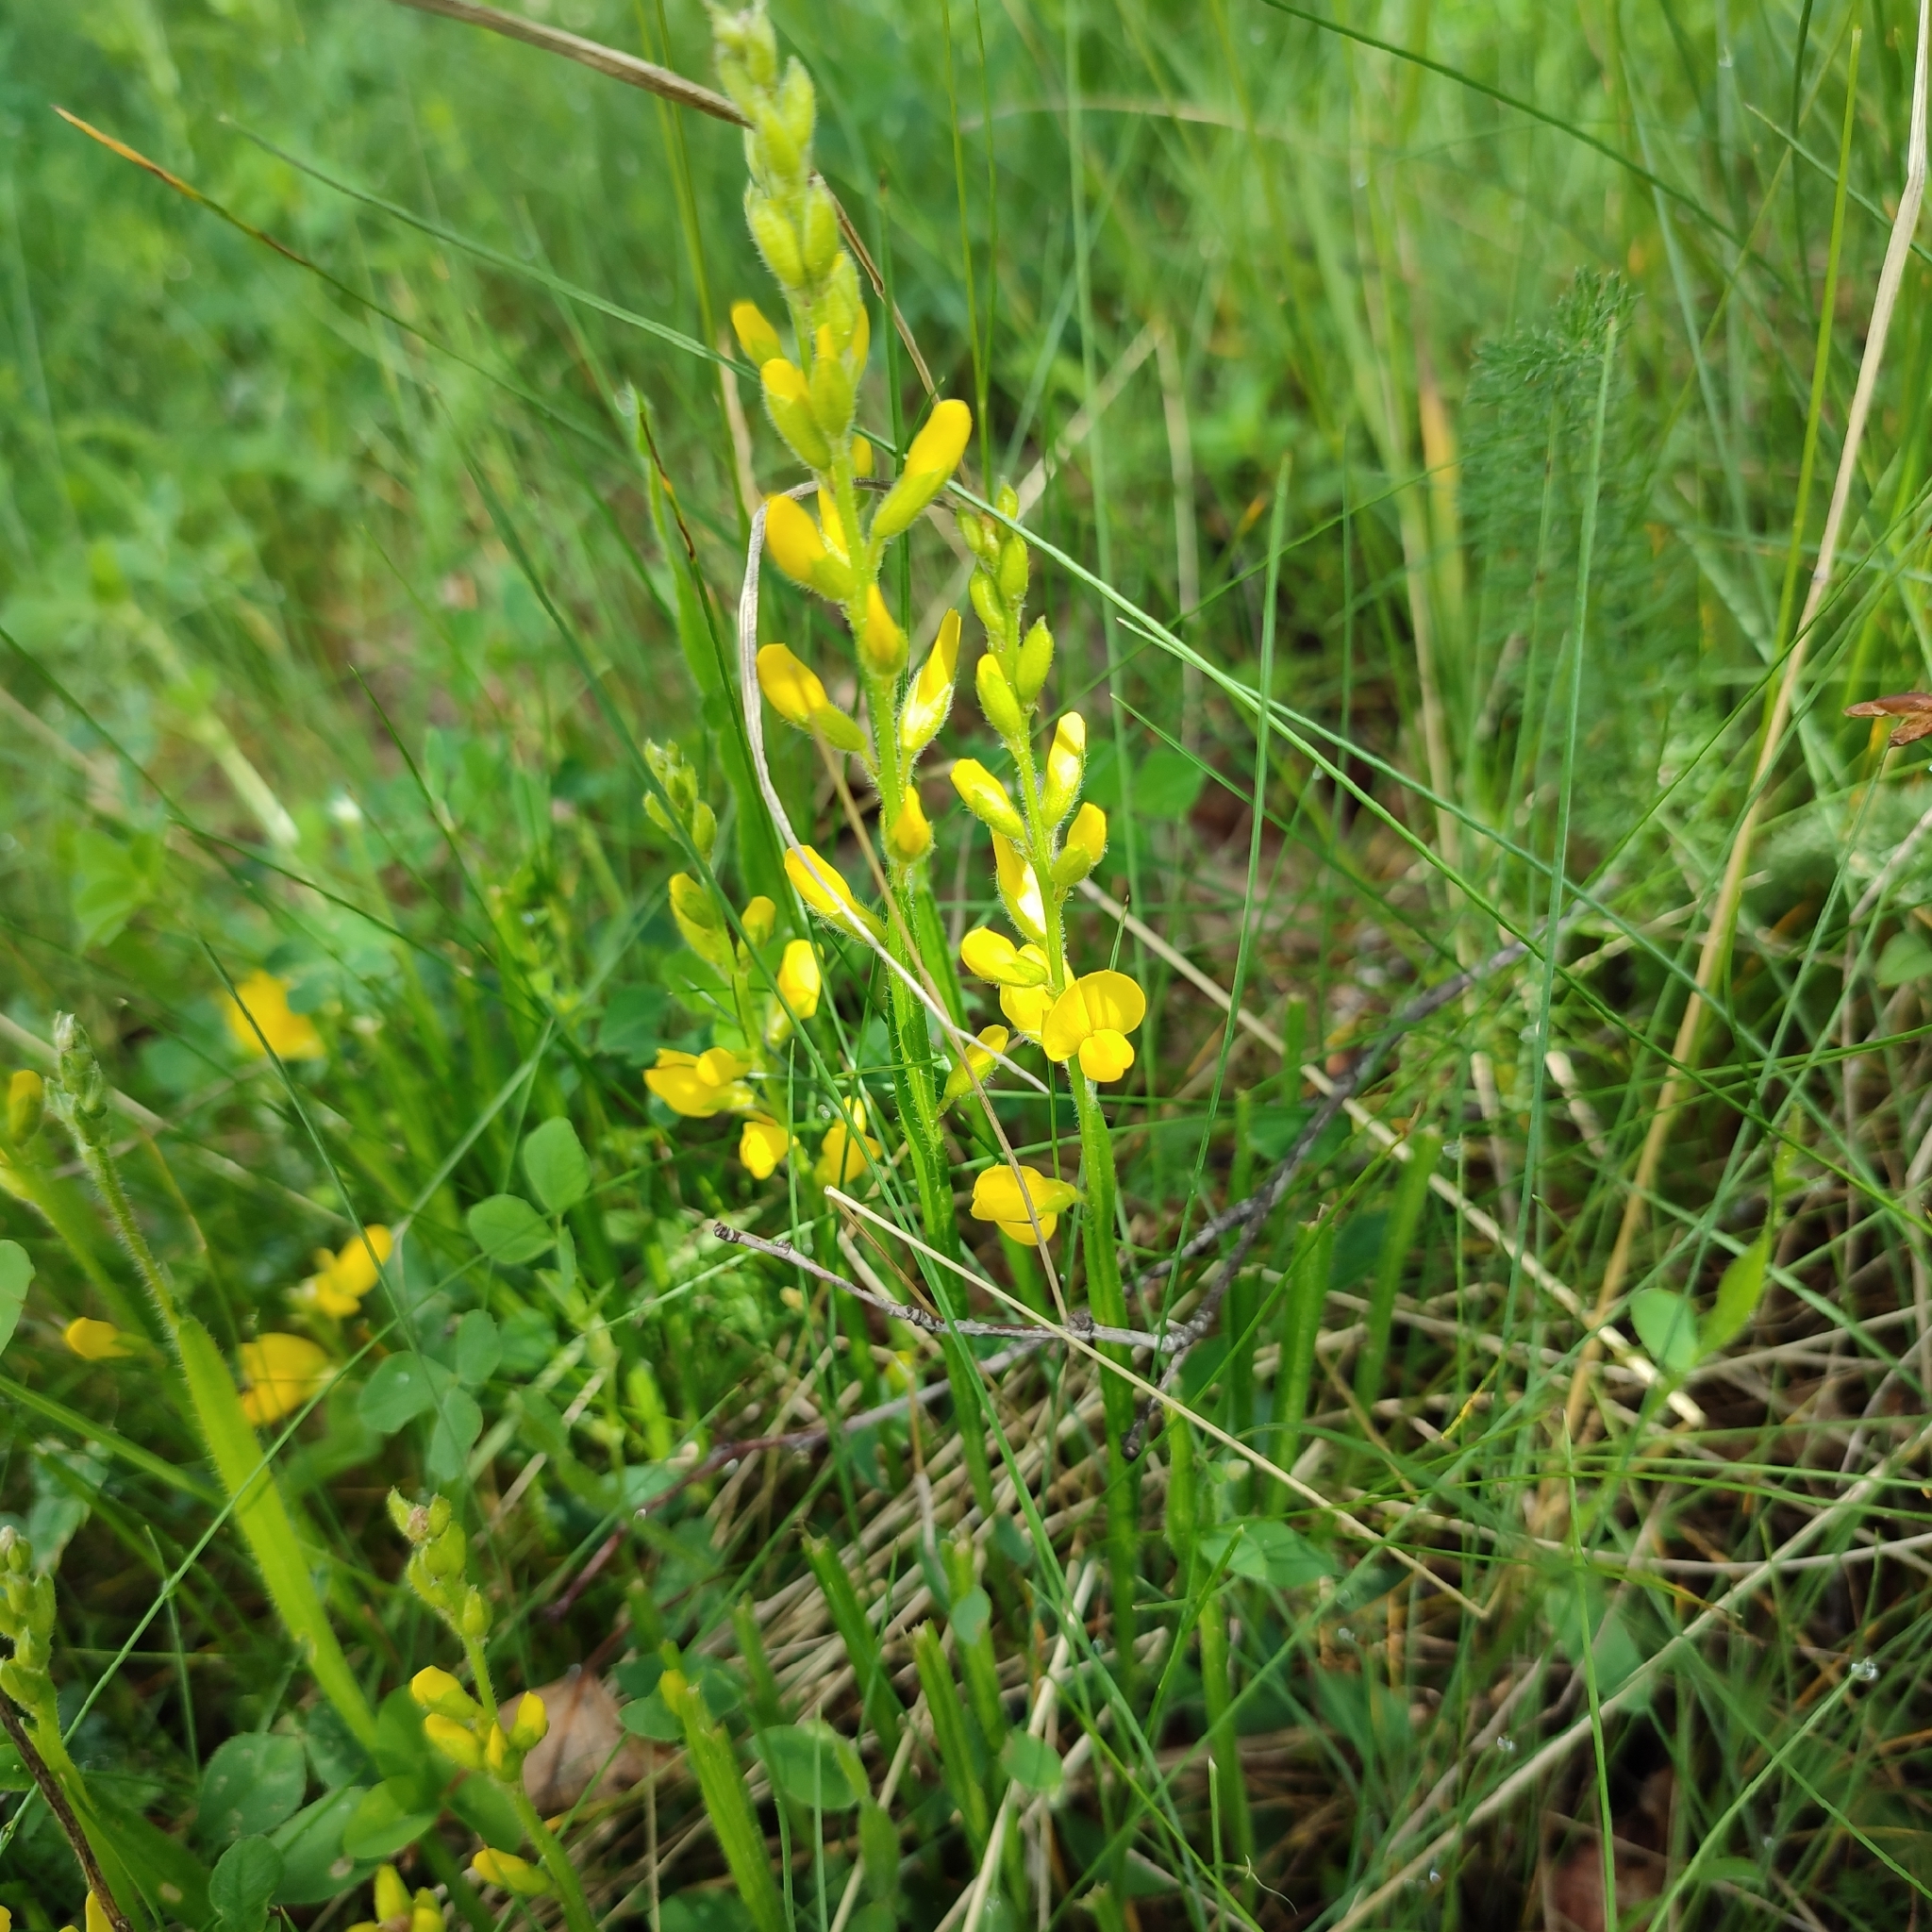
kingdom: Plantae
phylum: Tracheophyta
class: Magnoliopsida
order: Fabales
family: Fabaceae
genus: Genista
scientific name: Genista sagittalis
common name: Winged greenweed
